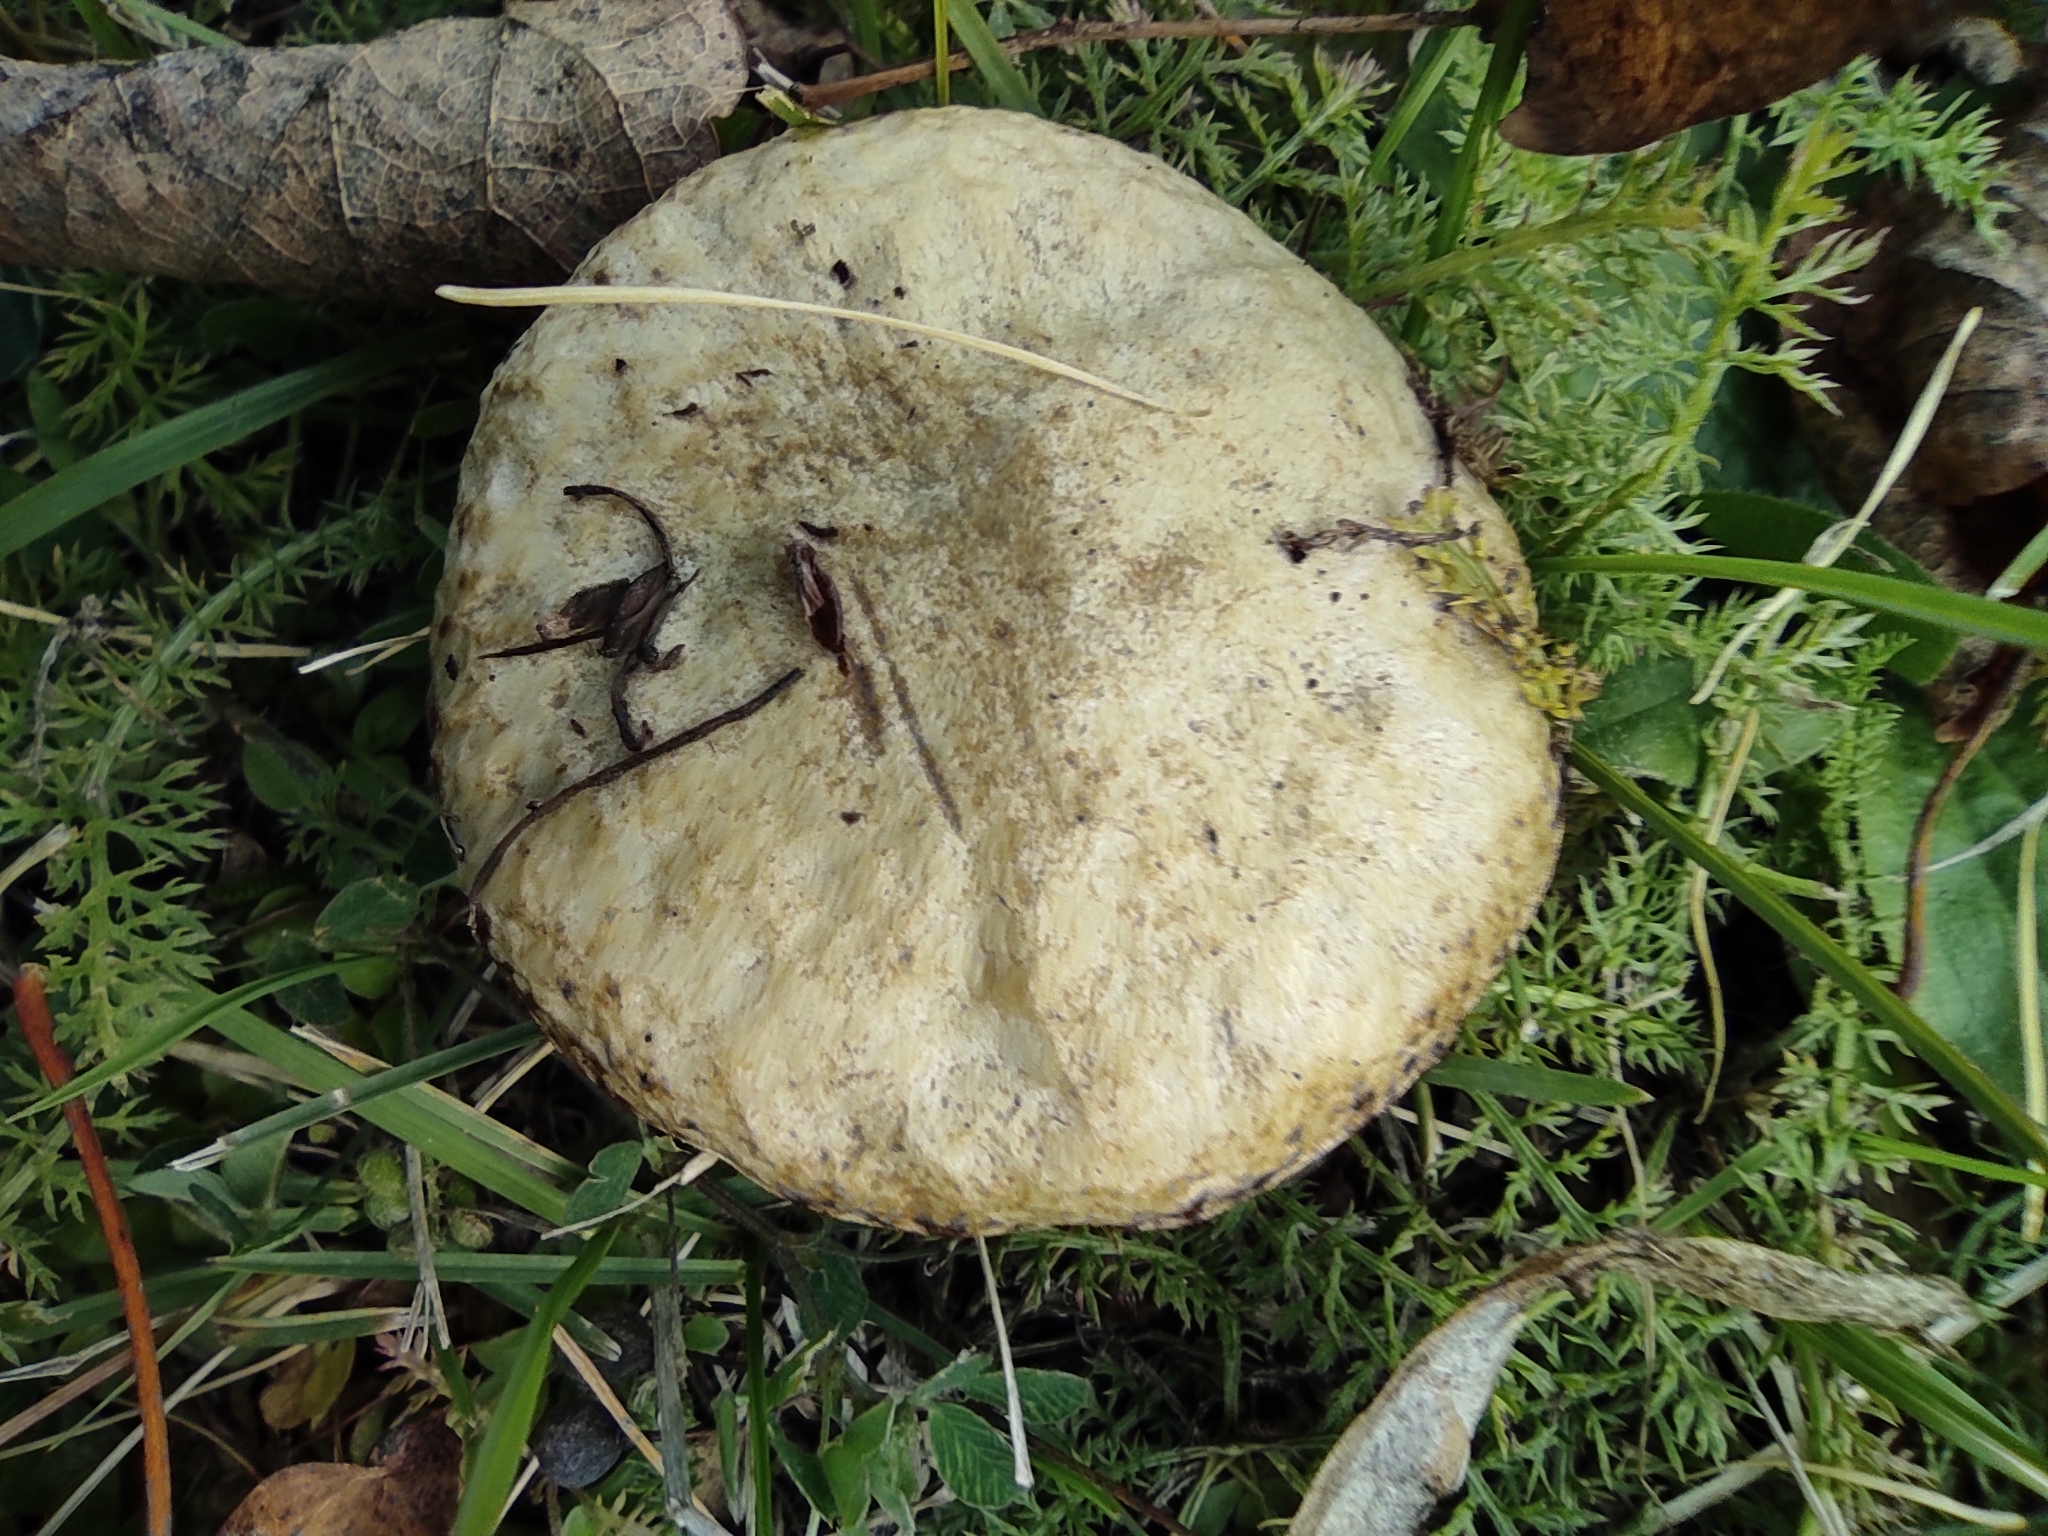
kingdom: Fungi
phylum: Basidiomycota
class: Agaricomycetes
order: Boletales
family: Suillaceae
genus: Suillus
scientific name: Suillus viscidus
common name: Sticky bolete
